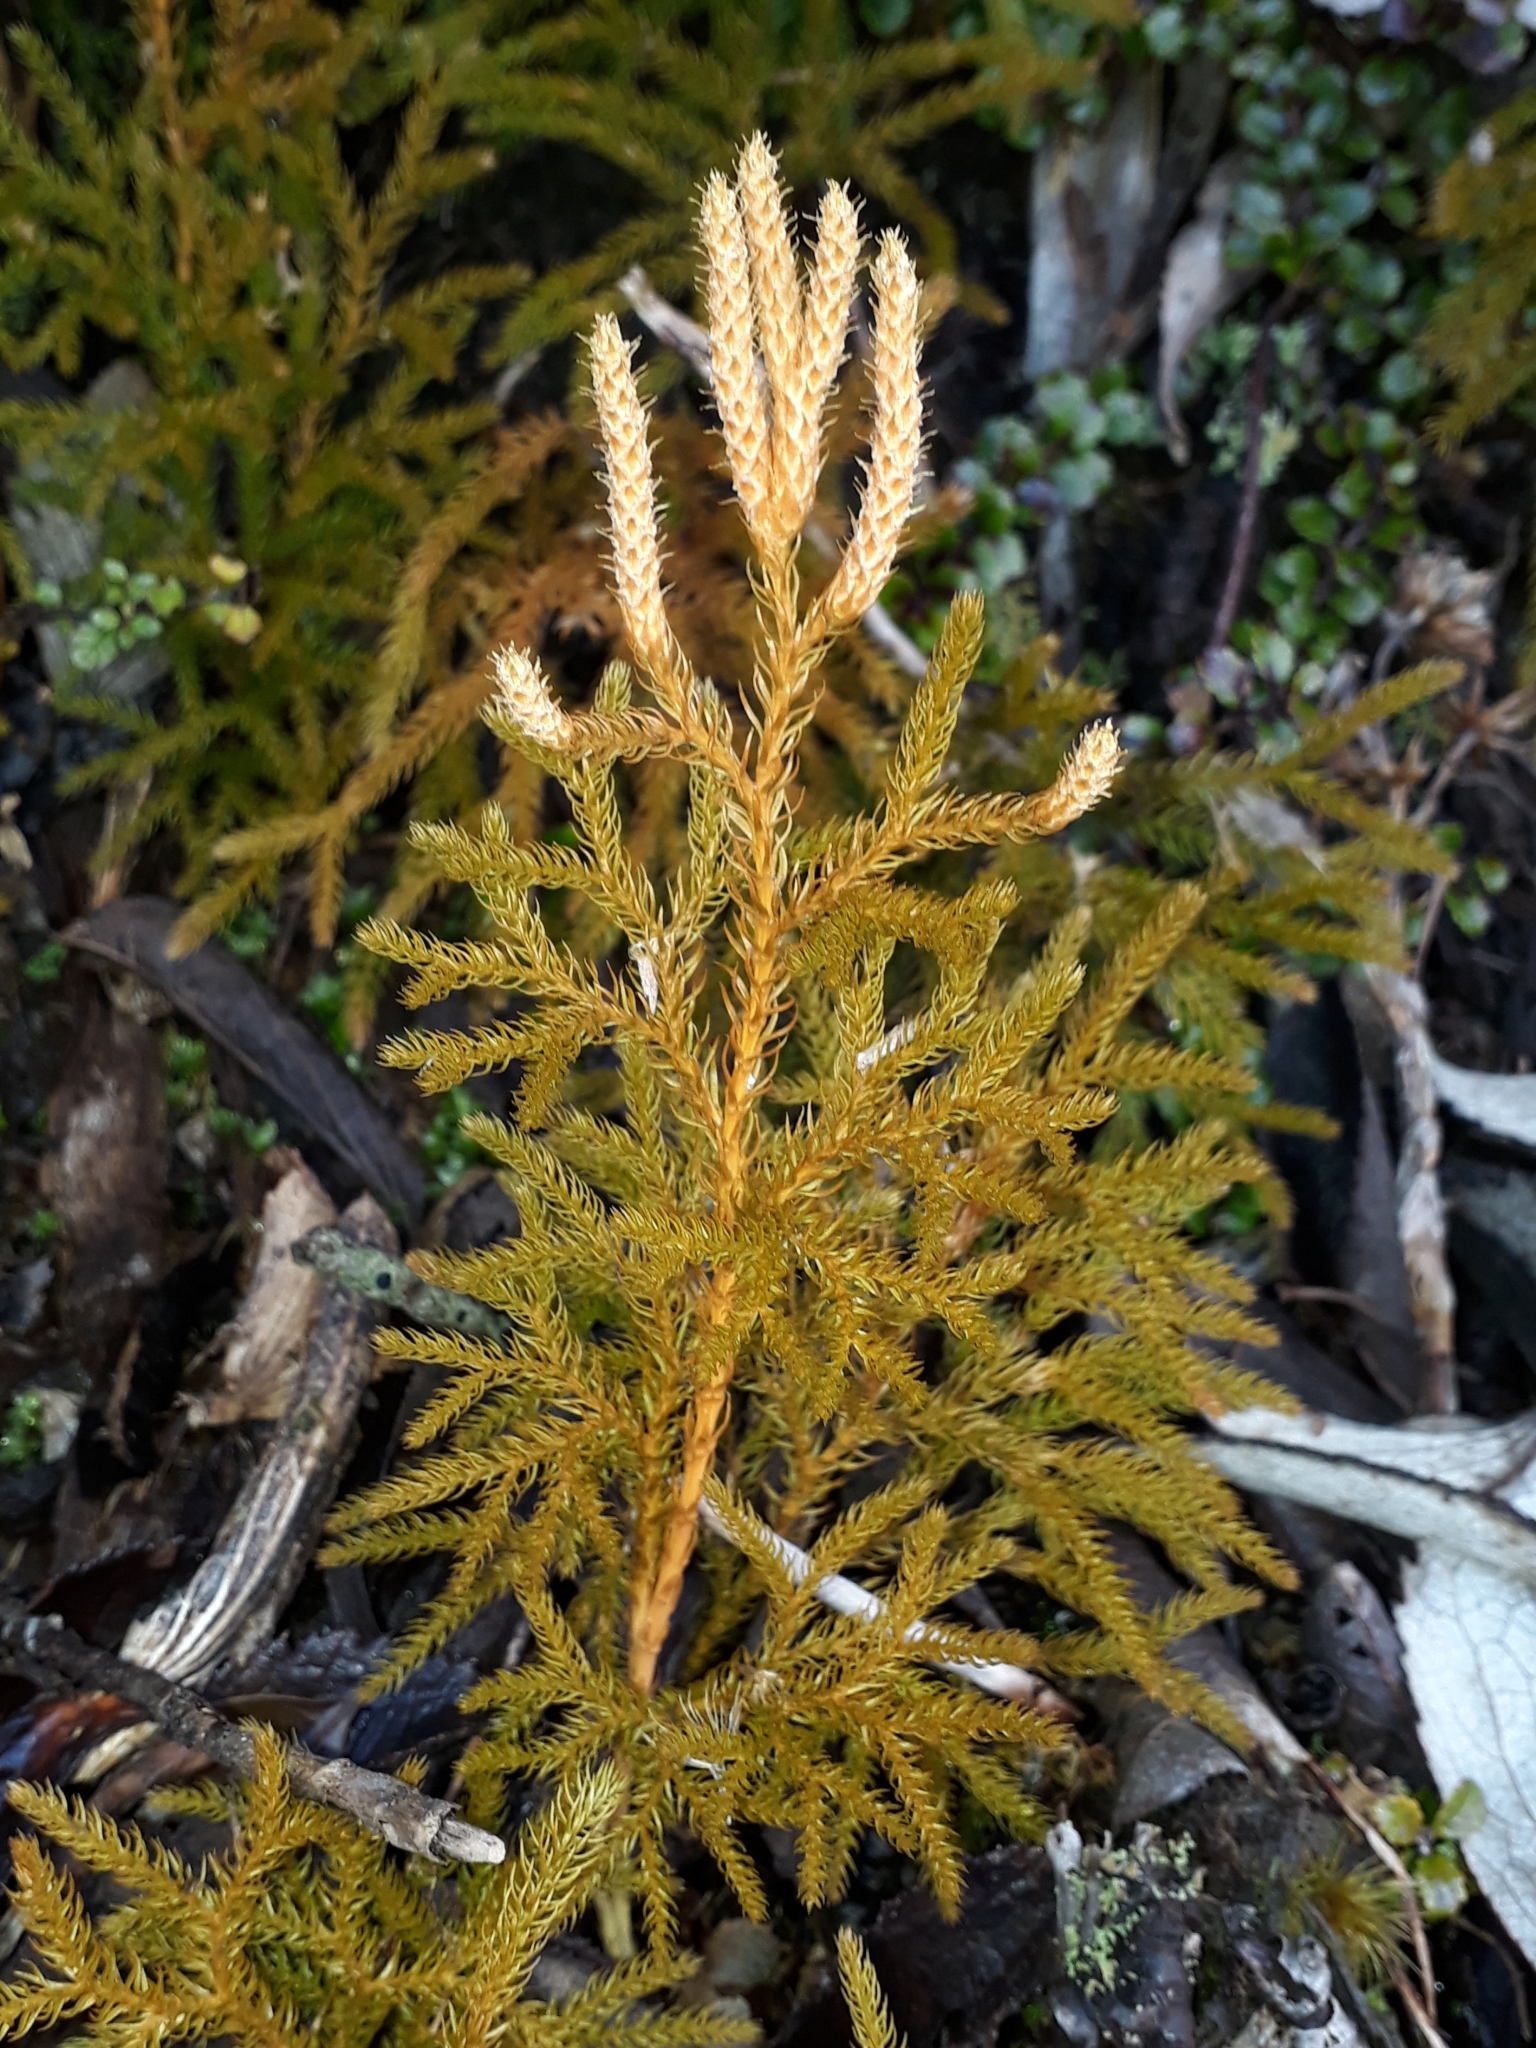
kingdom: Plantae
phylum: Tracheophyta
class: Lycopodiopsida
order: Lycopodiales
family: Lycopodiaceae
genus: Austrolycopodium
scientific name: Austrolycopodium fastigiatum
